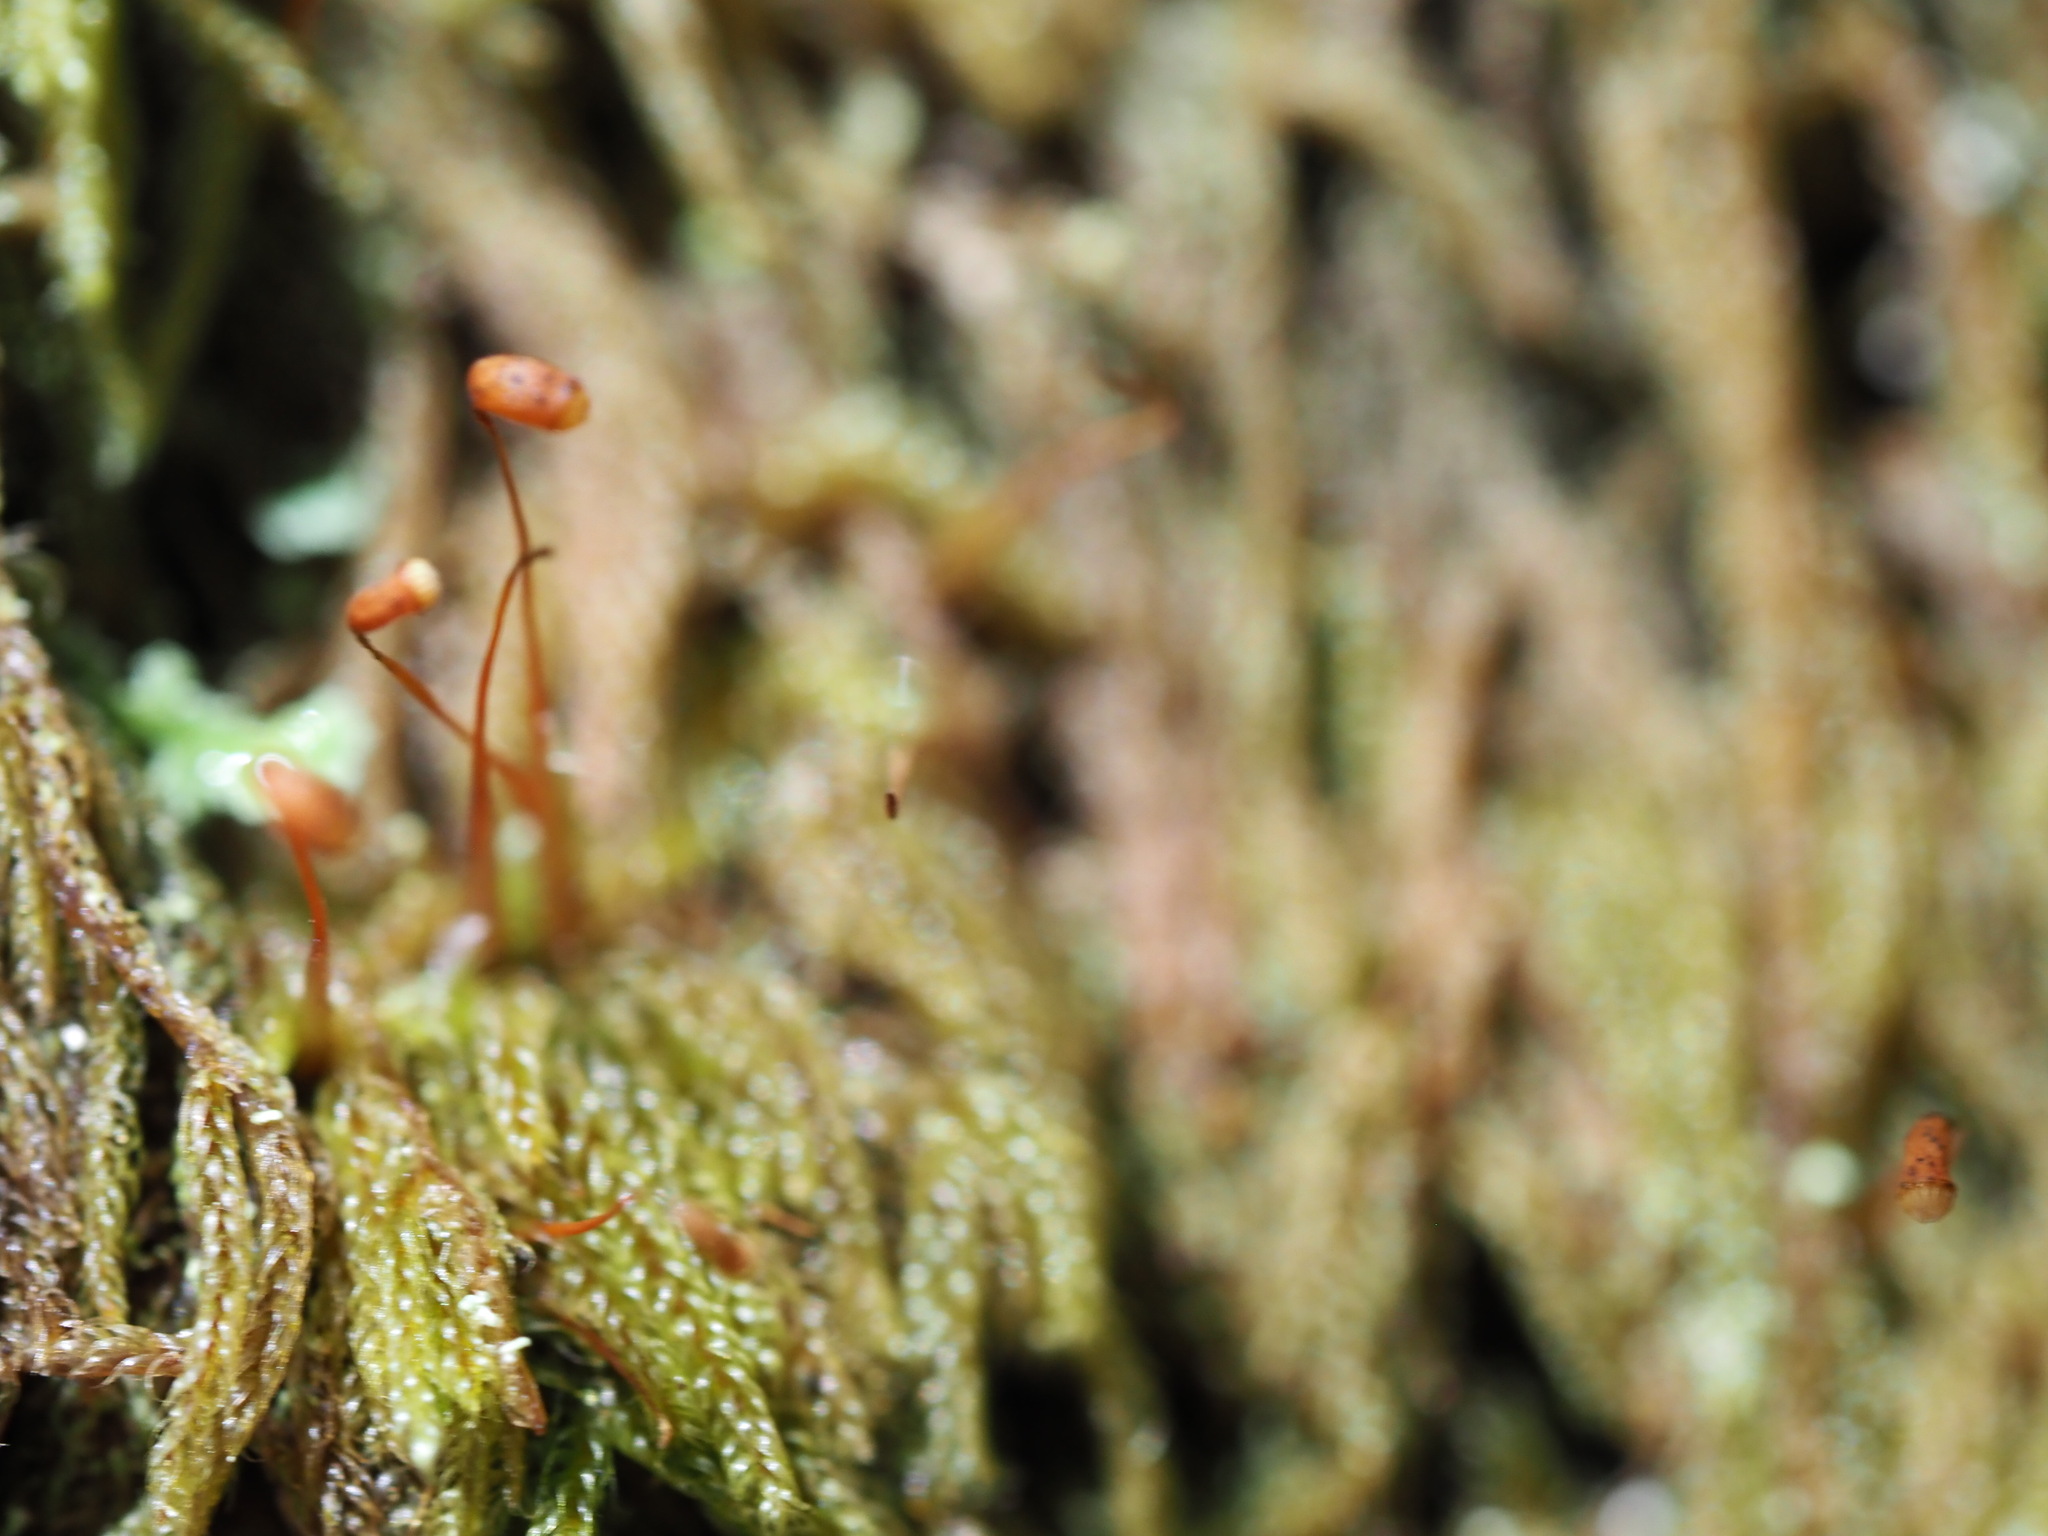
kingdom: Plantae
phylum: Bryophyta
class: Bryopsida
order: Hypnales
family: Pylaisiadelphaceae
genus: Trochophyllohypnum
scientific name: Trochophyllohypnum circinale
